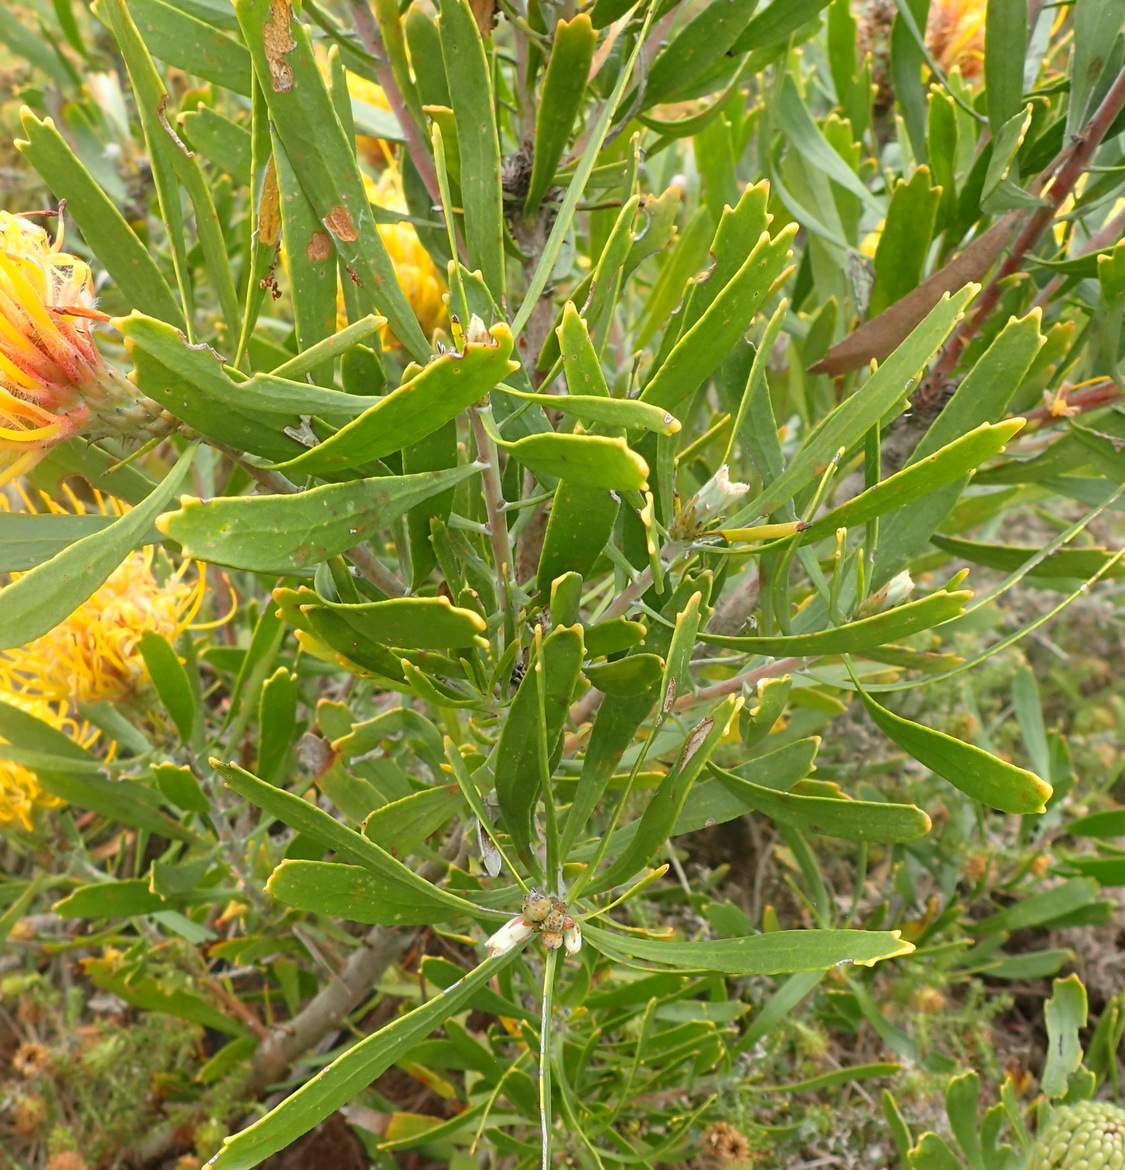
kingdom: Plantae
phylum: Tracheophyta
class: Magnoliopsida
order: Proteales
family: Proteaceae
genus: Leucospermum
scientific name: Leucospermum cuneiforme
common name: Common pincushion
